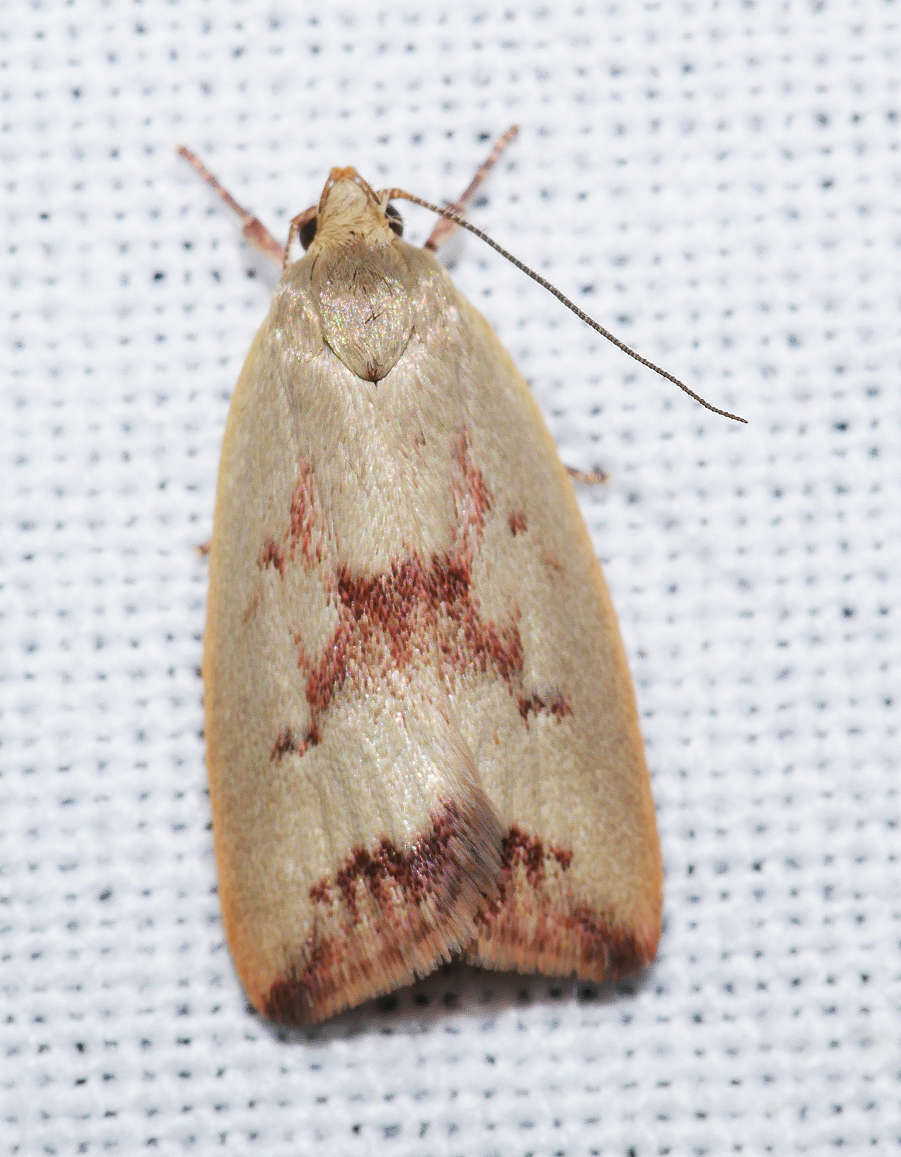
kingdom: Animalia
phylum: Arthropoda
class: Insecta
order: Lepidoptera
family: Oecophoridae
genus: Ageletha
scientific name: Ageletha elaeodes
